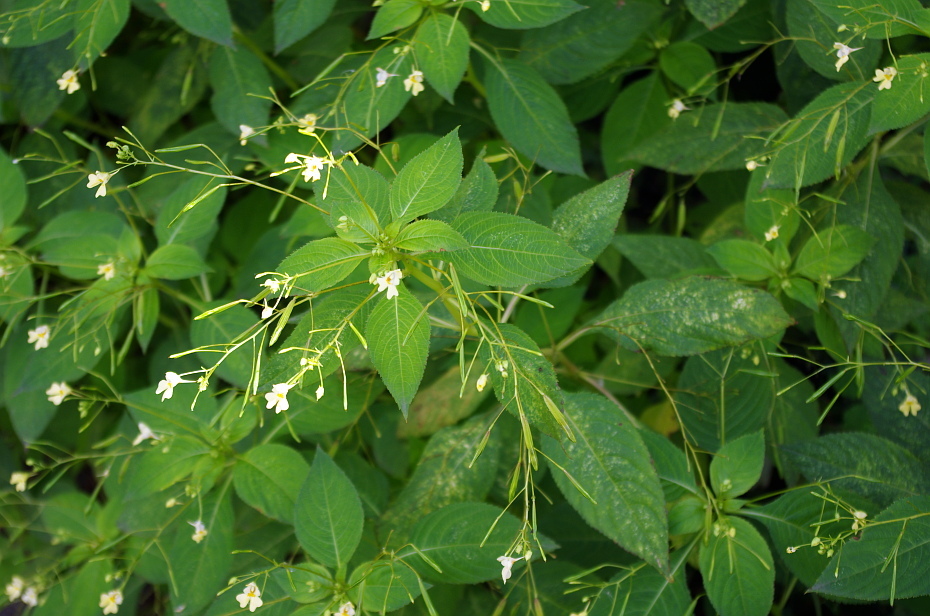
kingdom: Plantae
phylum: Tracheophyta
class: Magnoliopsida
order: Ericales
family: Balsaminaceae
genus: Impatiens
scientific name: Impatiens parviflora
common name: Small balsam
